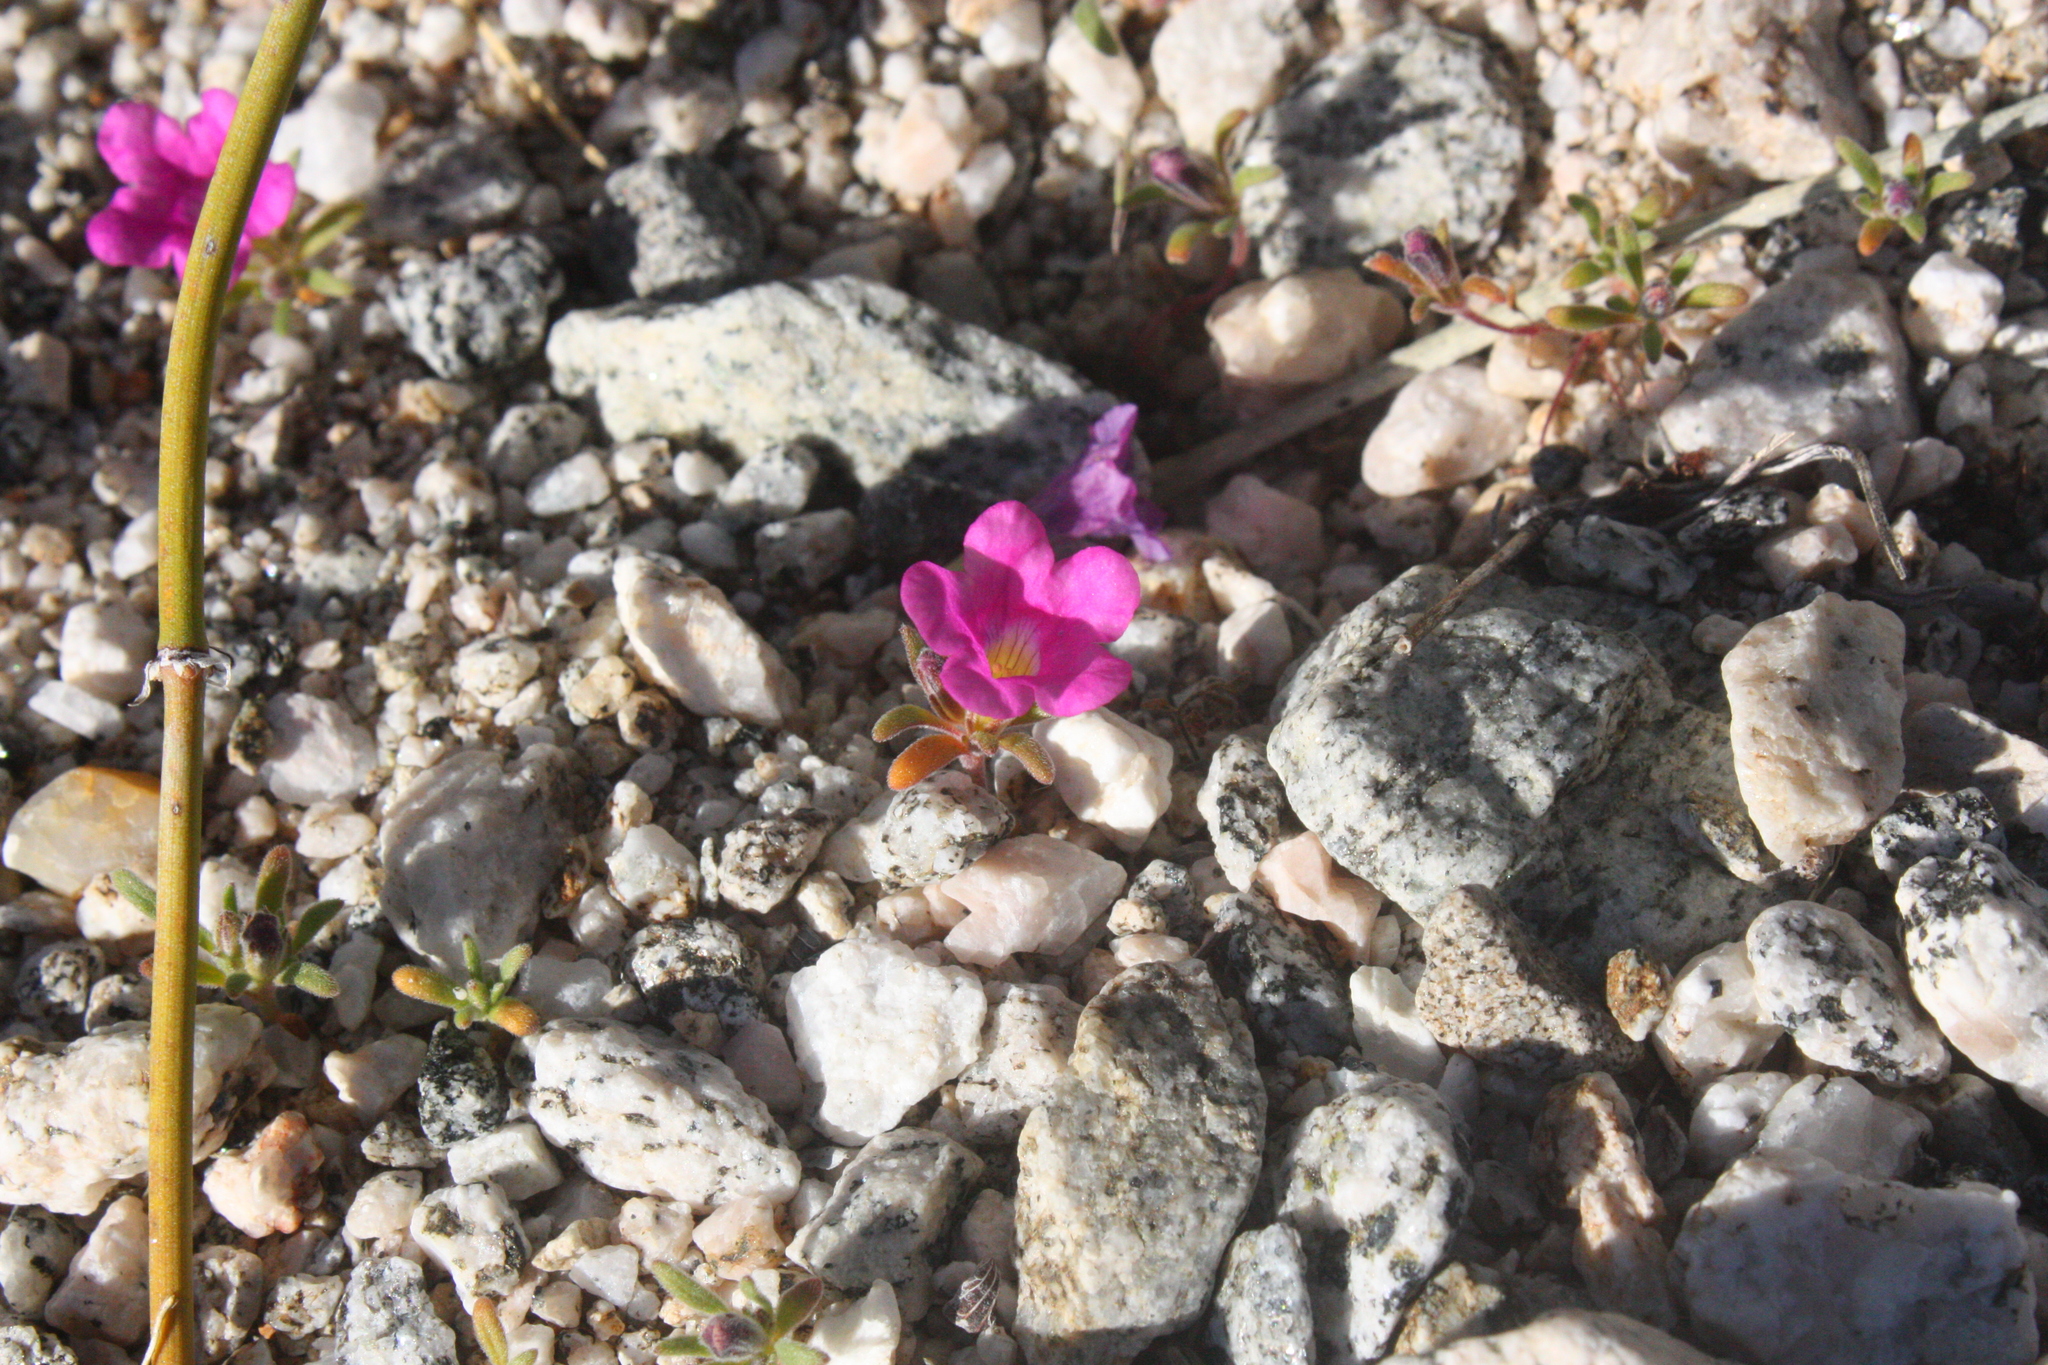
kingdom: Plantae
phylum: Tracheophyta
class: Magnoliopsida
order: Boraginales
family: Namaceae
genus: Nama
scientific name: Nama demissa
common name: Leafy nama
